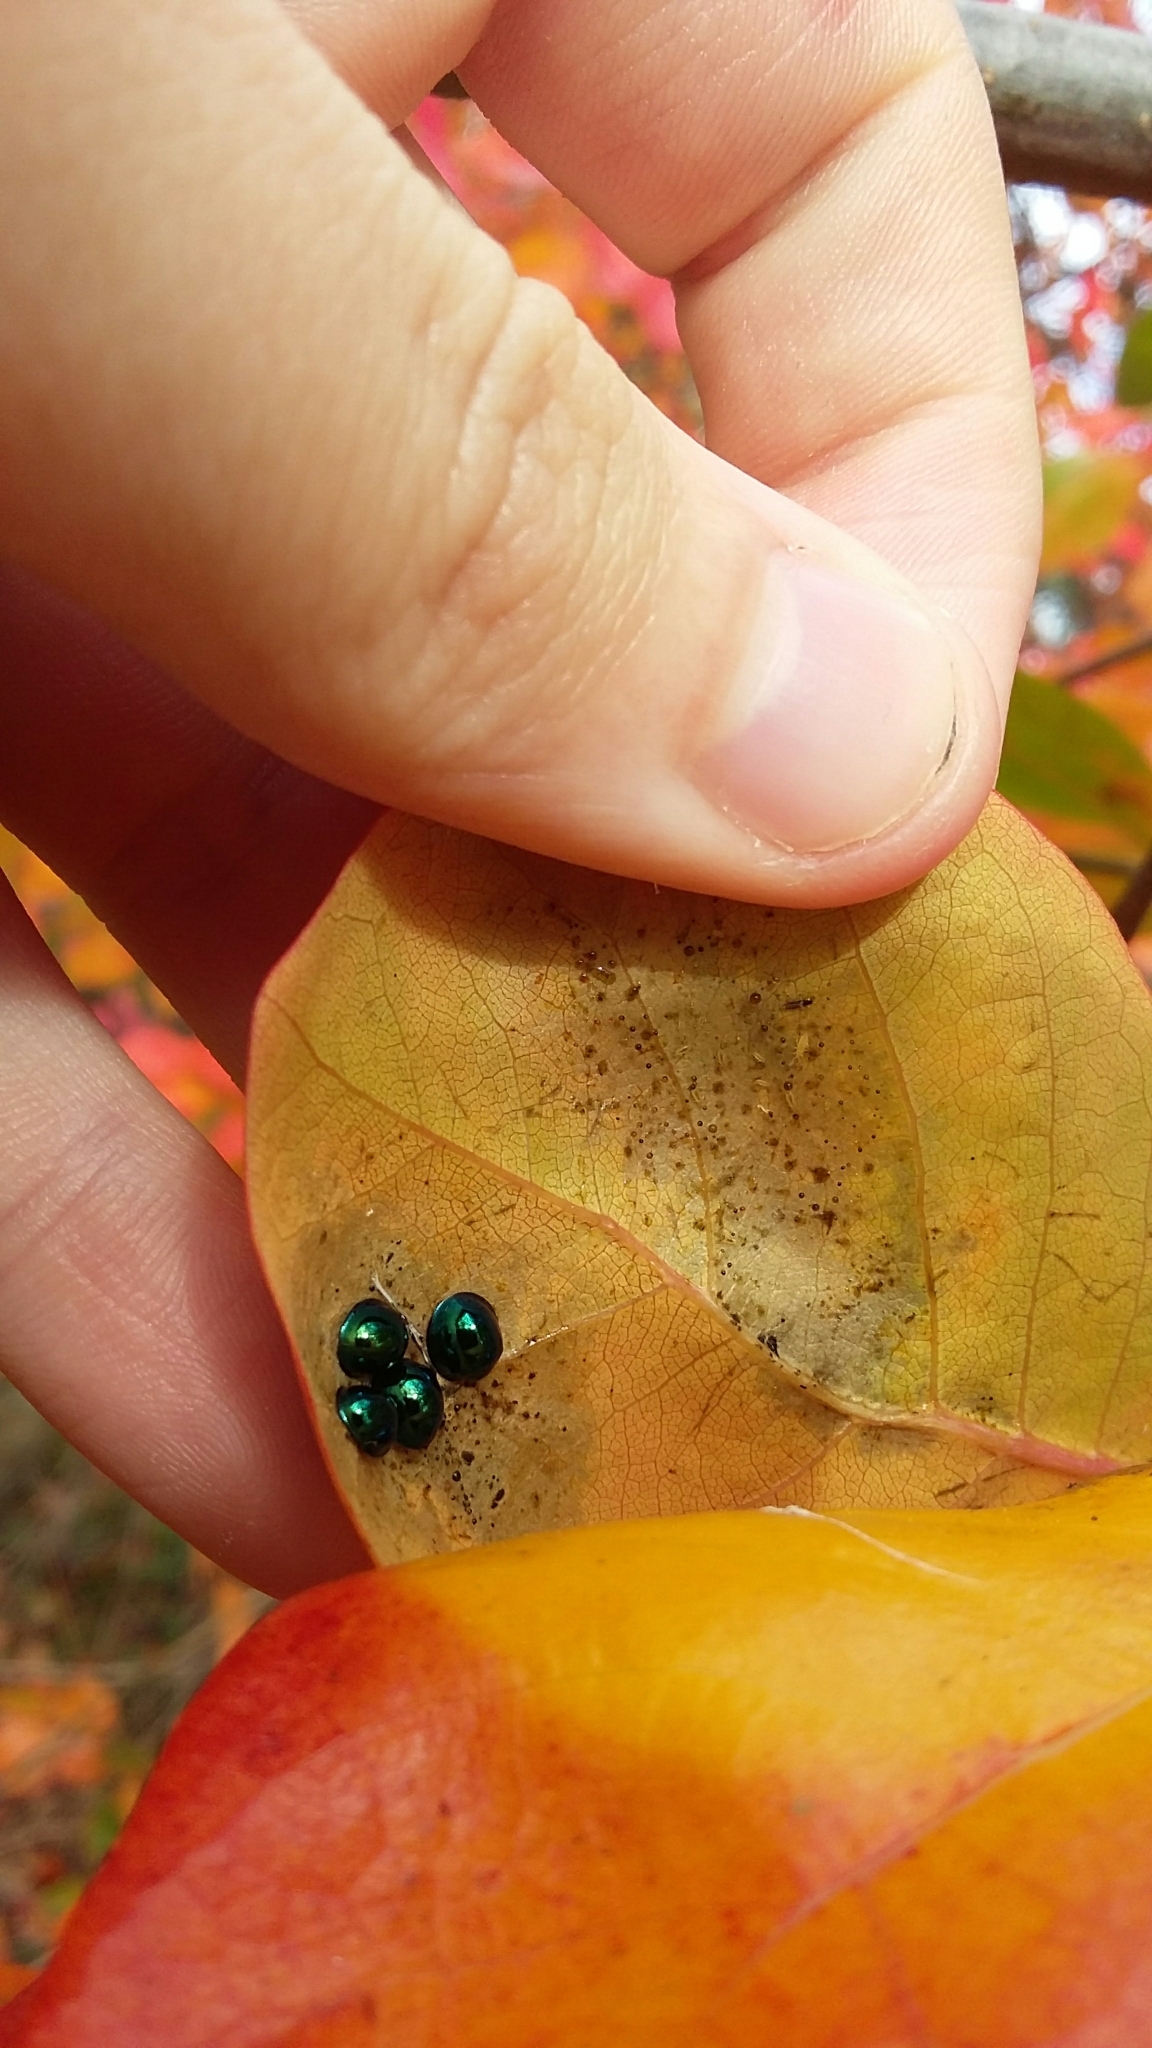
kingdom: Animalia
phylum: Arthropoda
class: Insecta
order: Coleoptera
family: Coccinellidae
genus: Halmus
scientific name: Halmus chalybeus
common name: Steel blue ladybird beetle
